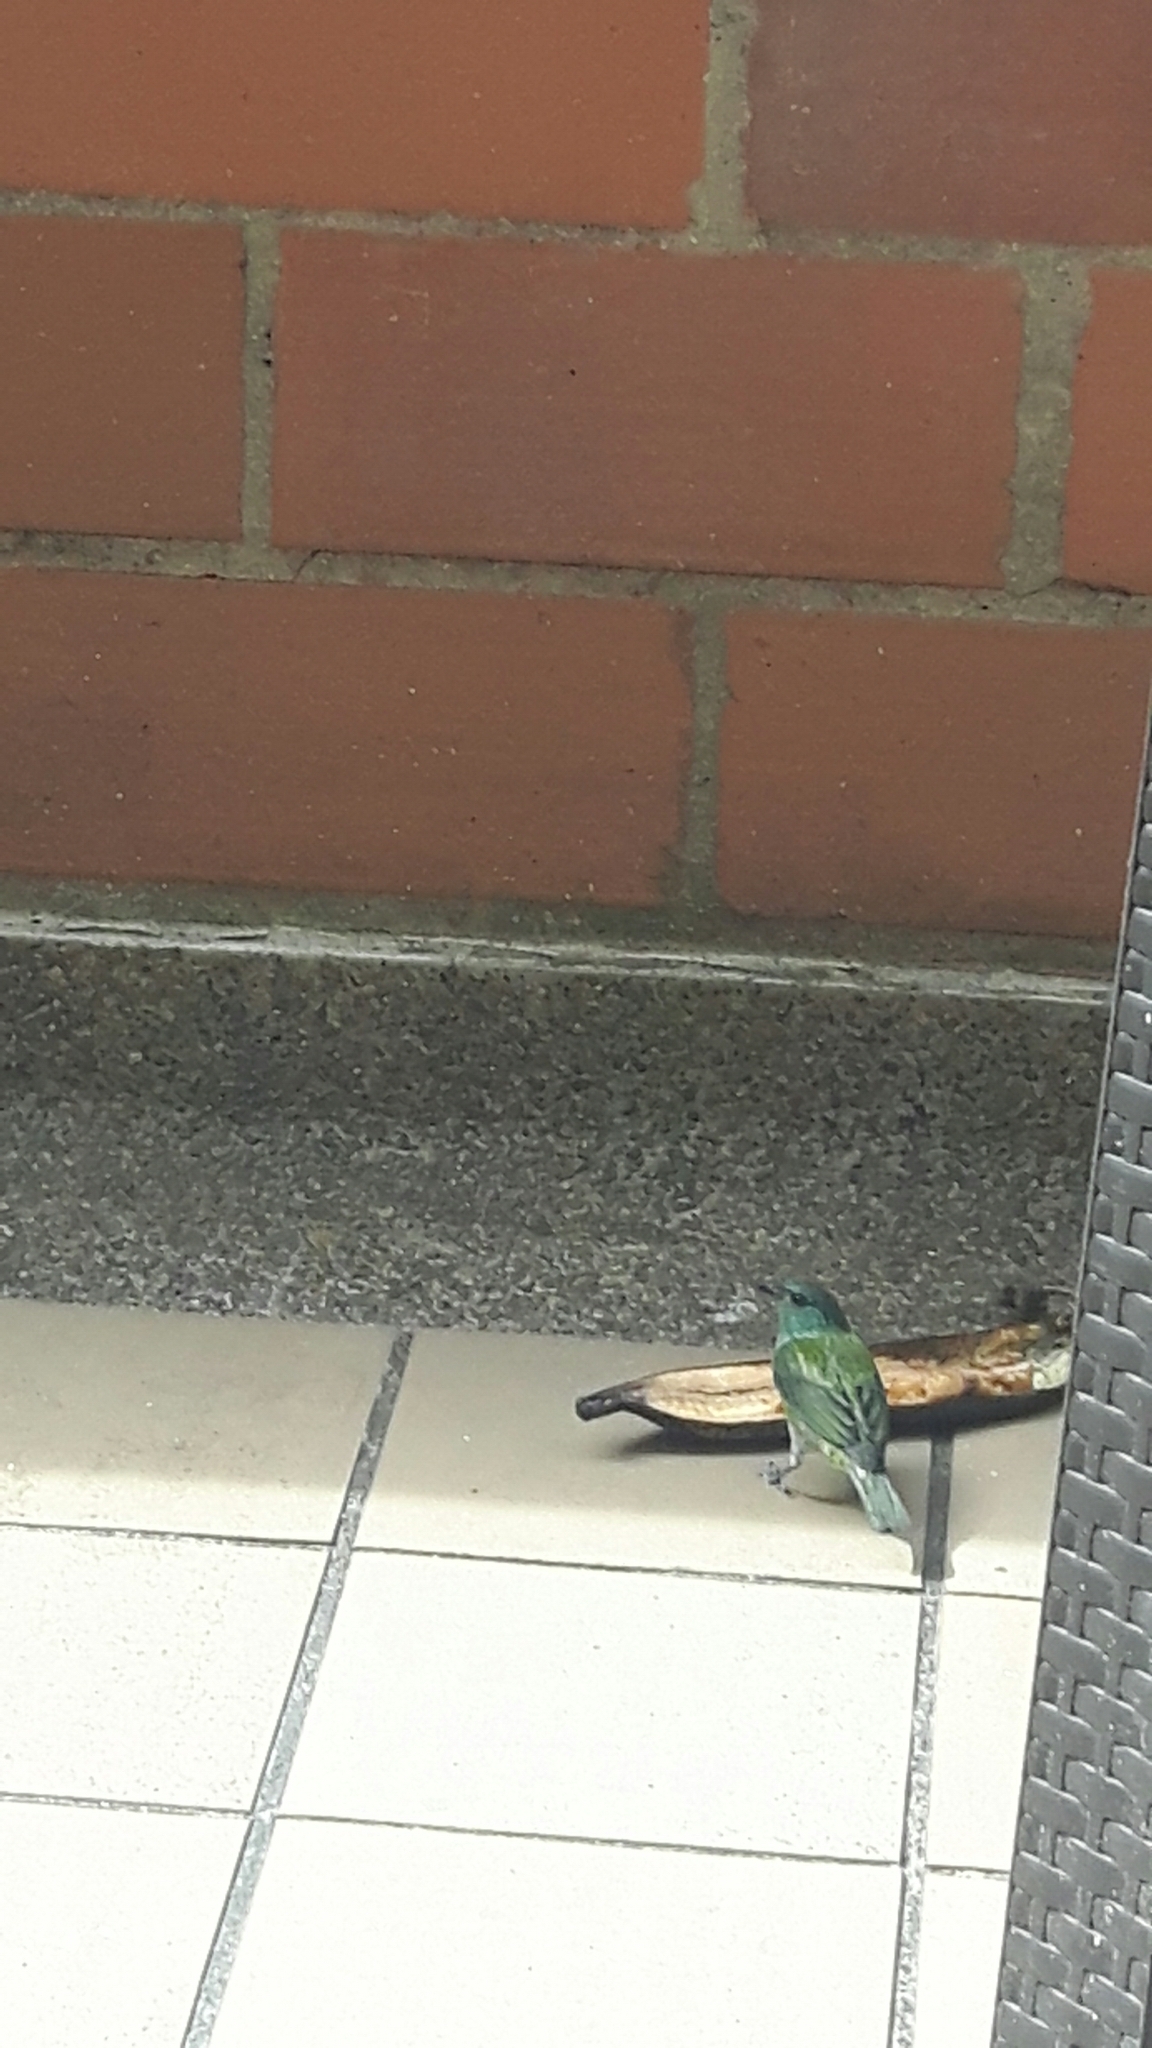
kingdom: Animalia
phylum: Chordata
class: Aves
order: Passeriformes
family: Thraupidae
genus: Stilpnia
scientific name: Stilpnia heinei
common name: Black-capped tanager
